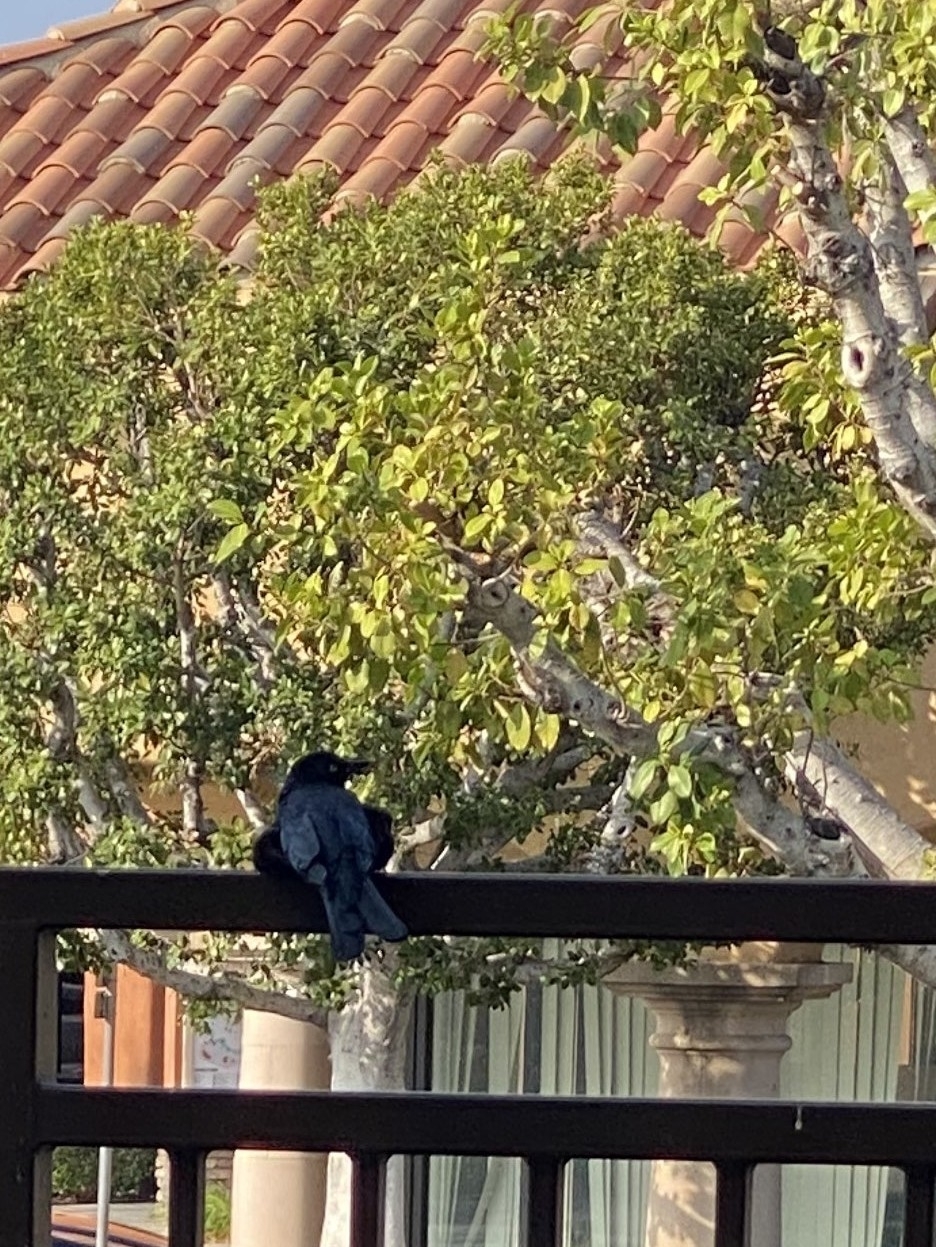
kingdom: Animalia
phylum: Chordata
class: Aves
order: Passeriformes
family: Icteridae
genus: Euphagus
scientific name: Euphagus cyanocephalus
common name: Brewer's blackbird
